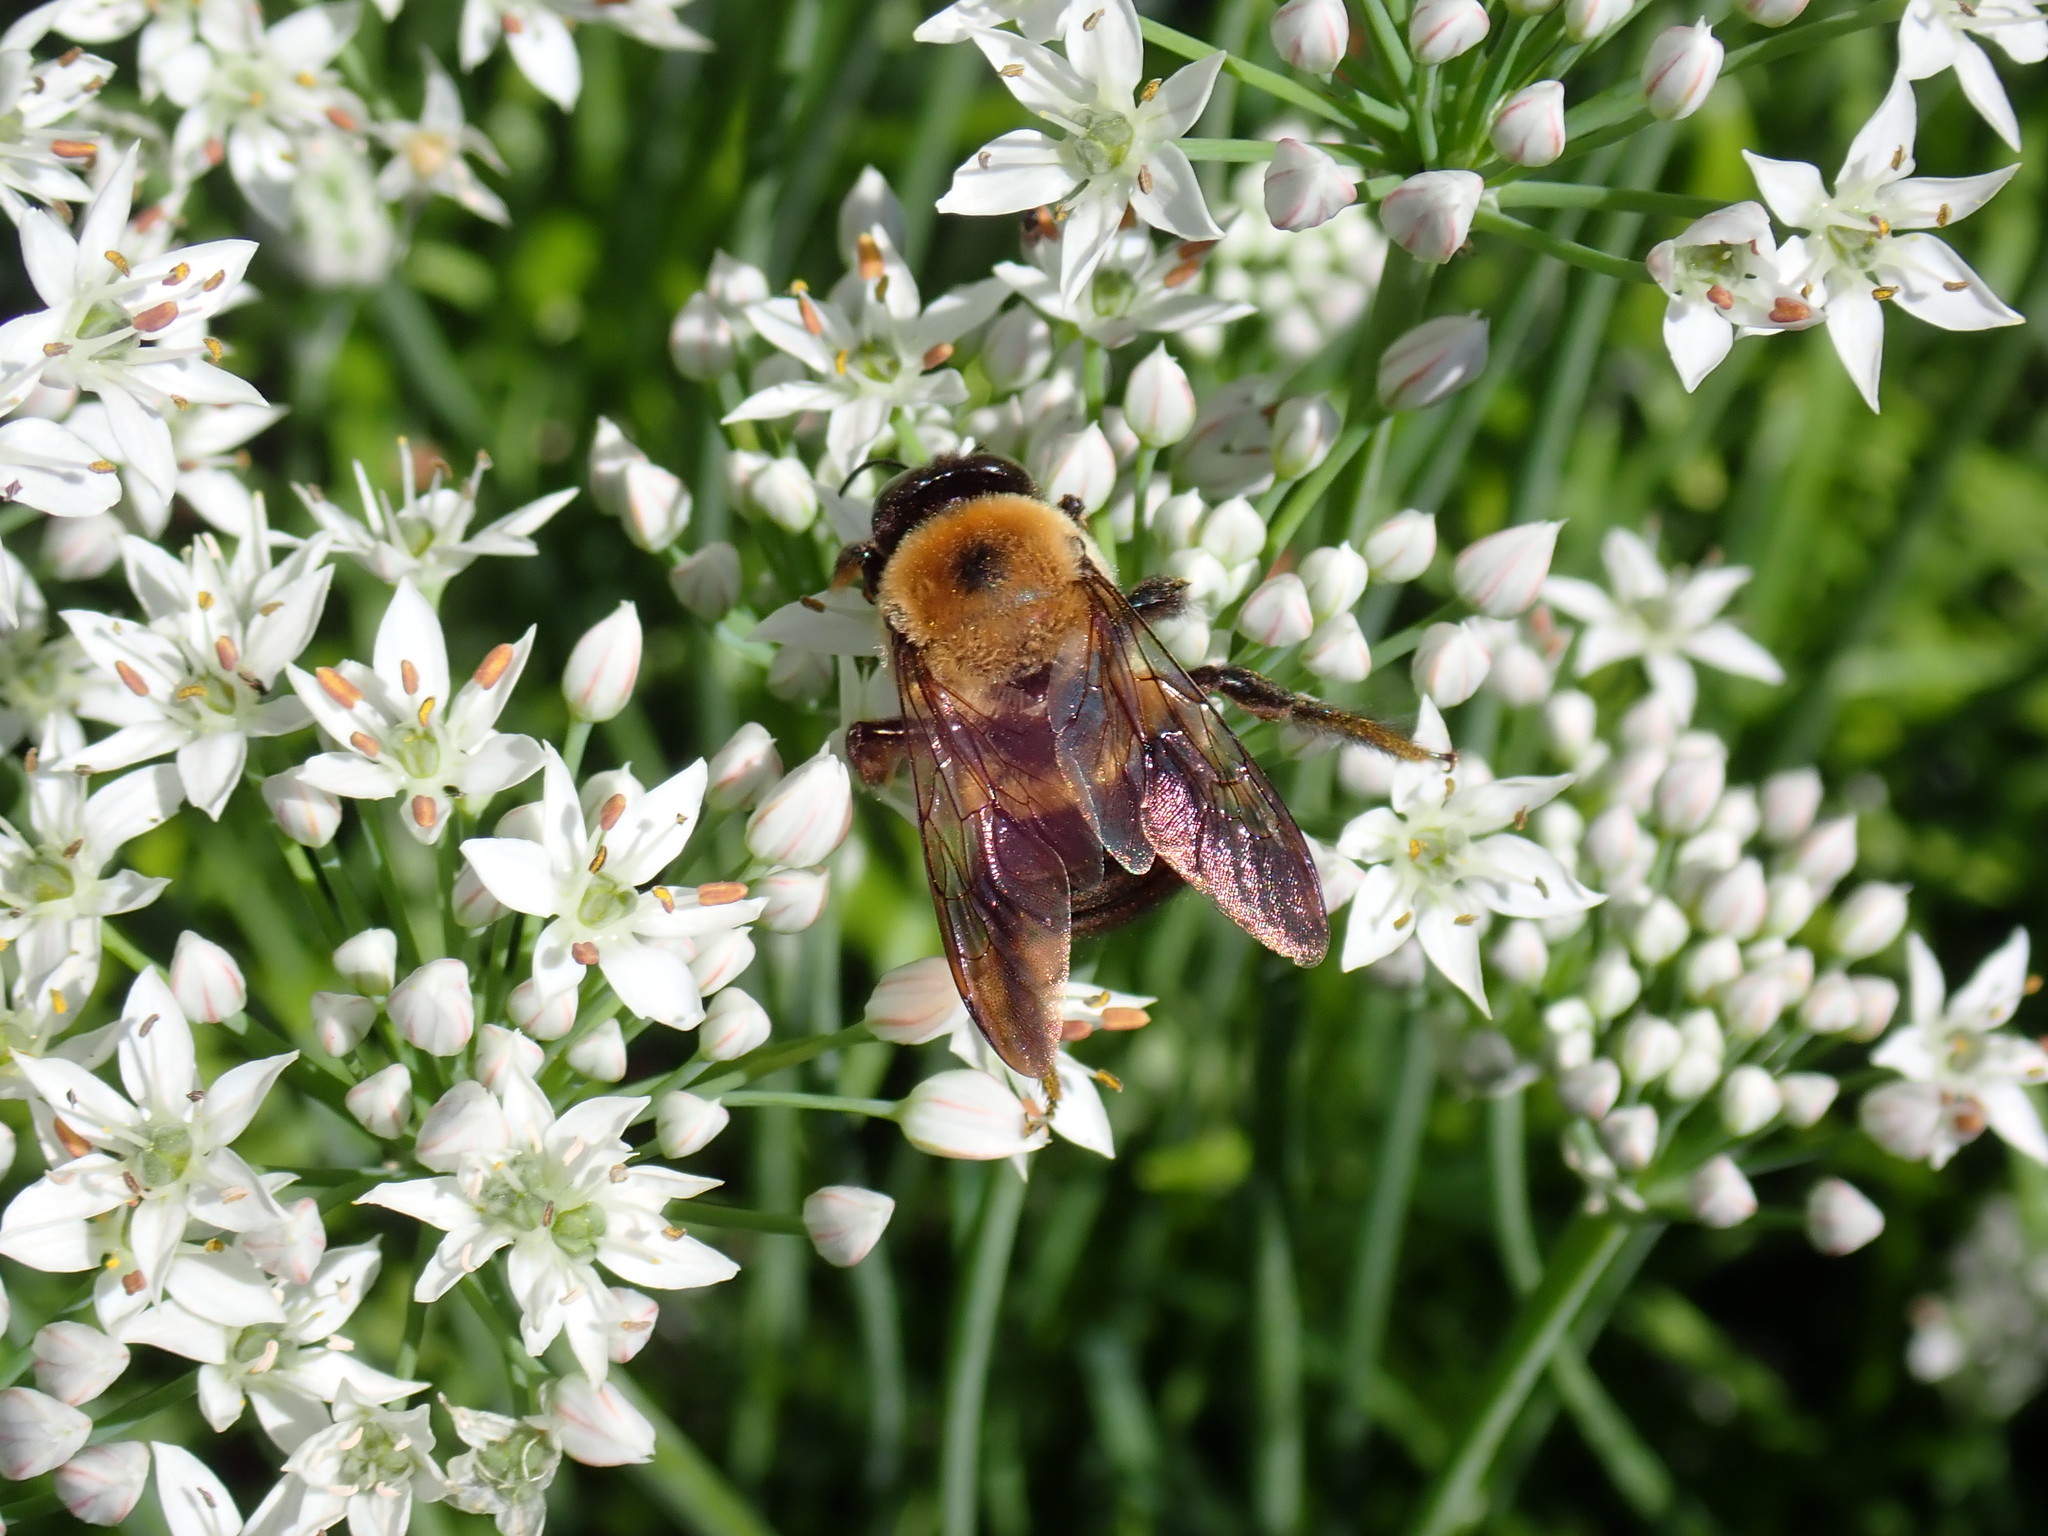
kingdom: Animalia
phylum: Arthropoda
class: Insecta
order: Hymenoptera
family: Apidae
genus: Xylocopa
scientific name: Xylocopa virginica
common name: Carpenter bee
